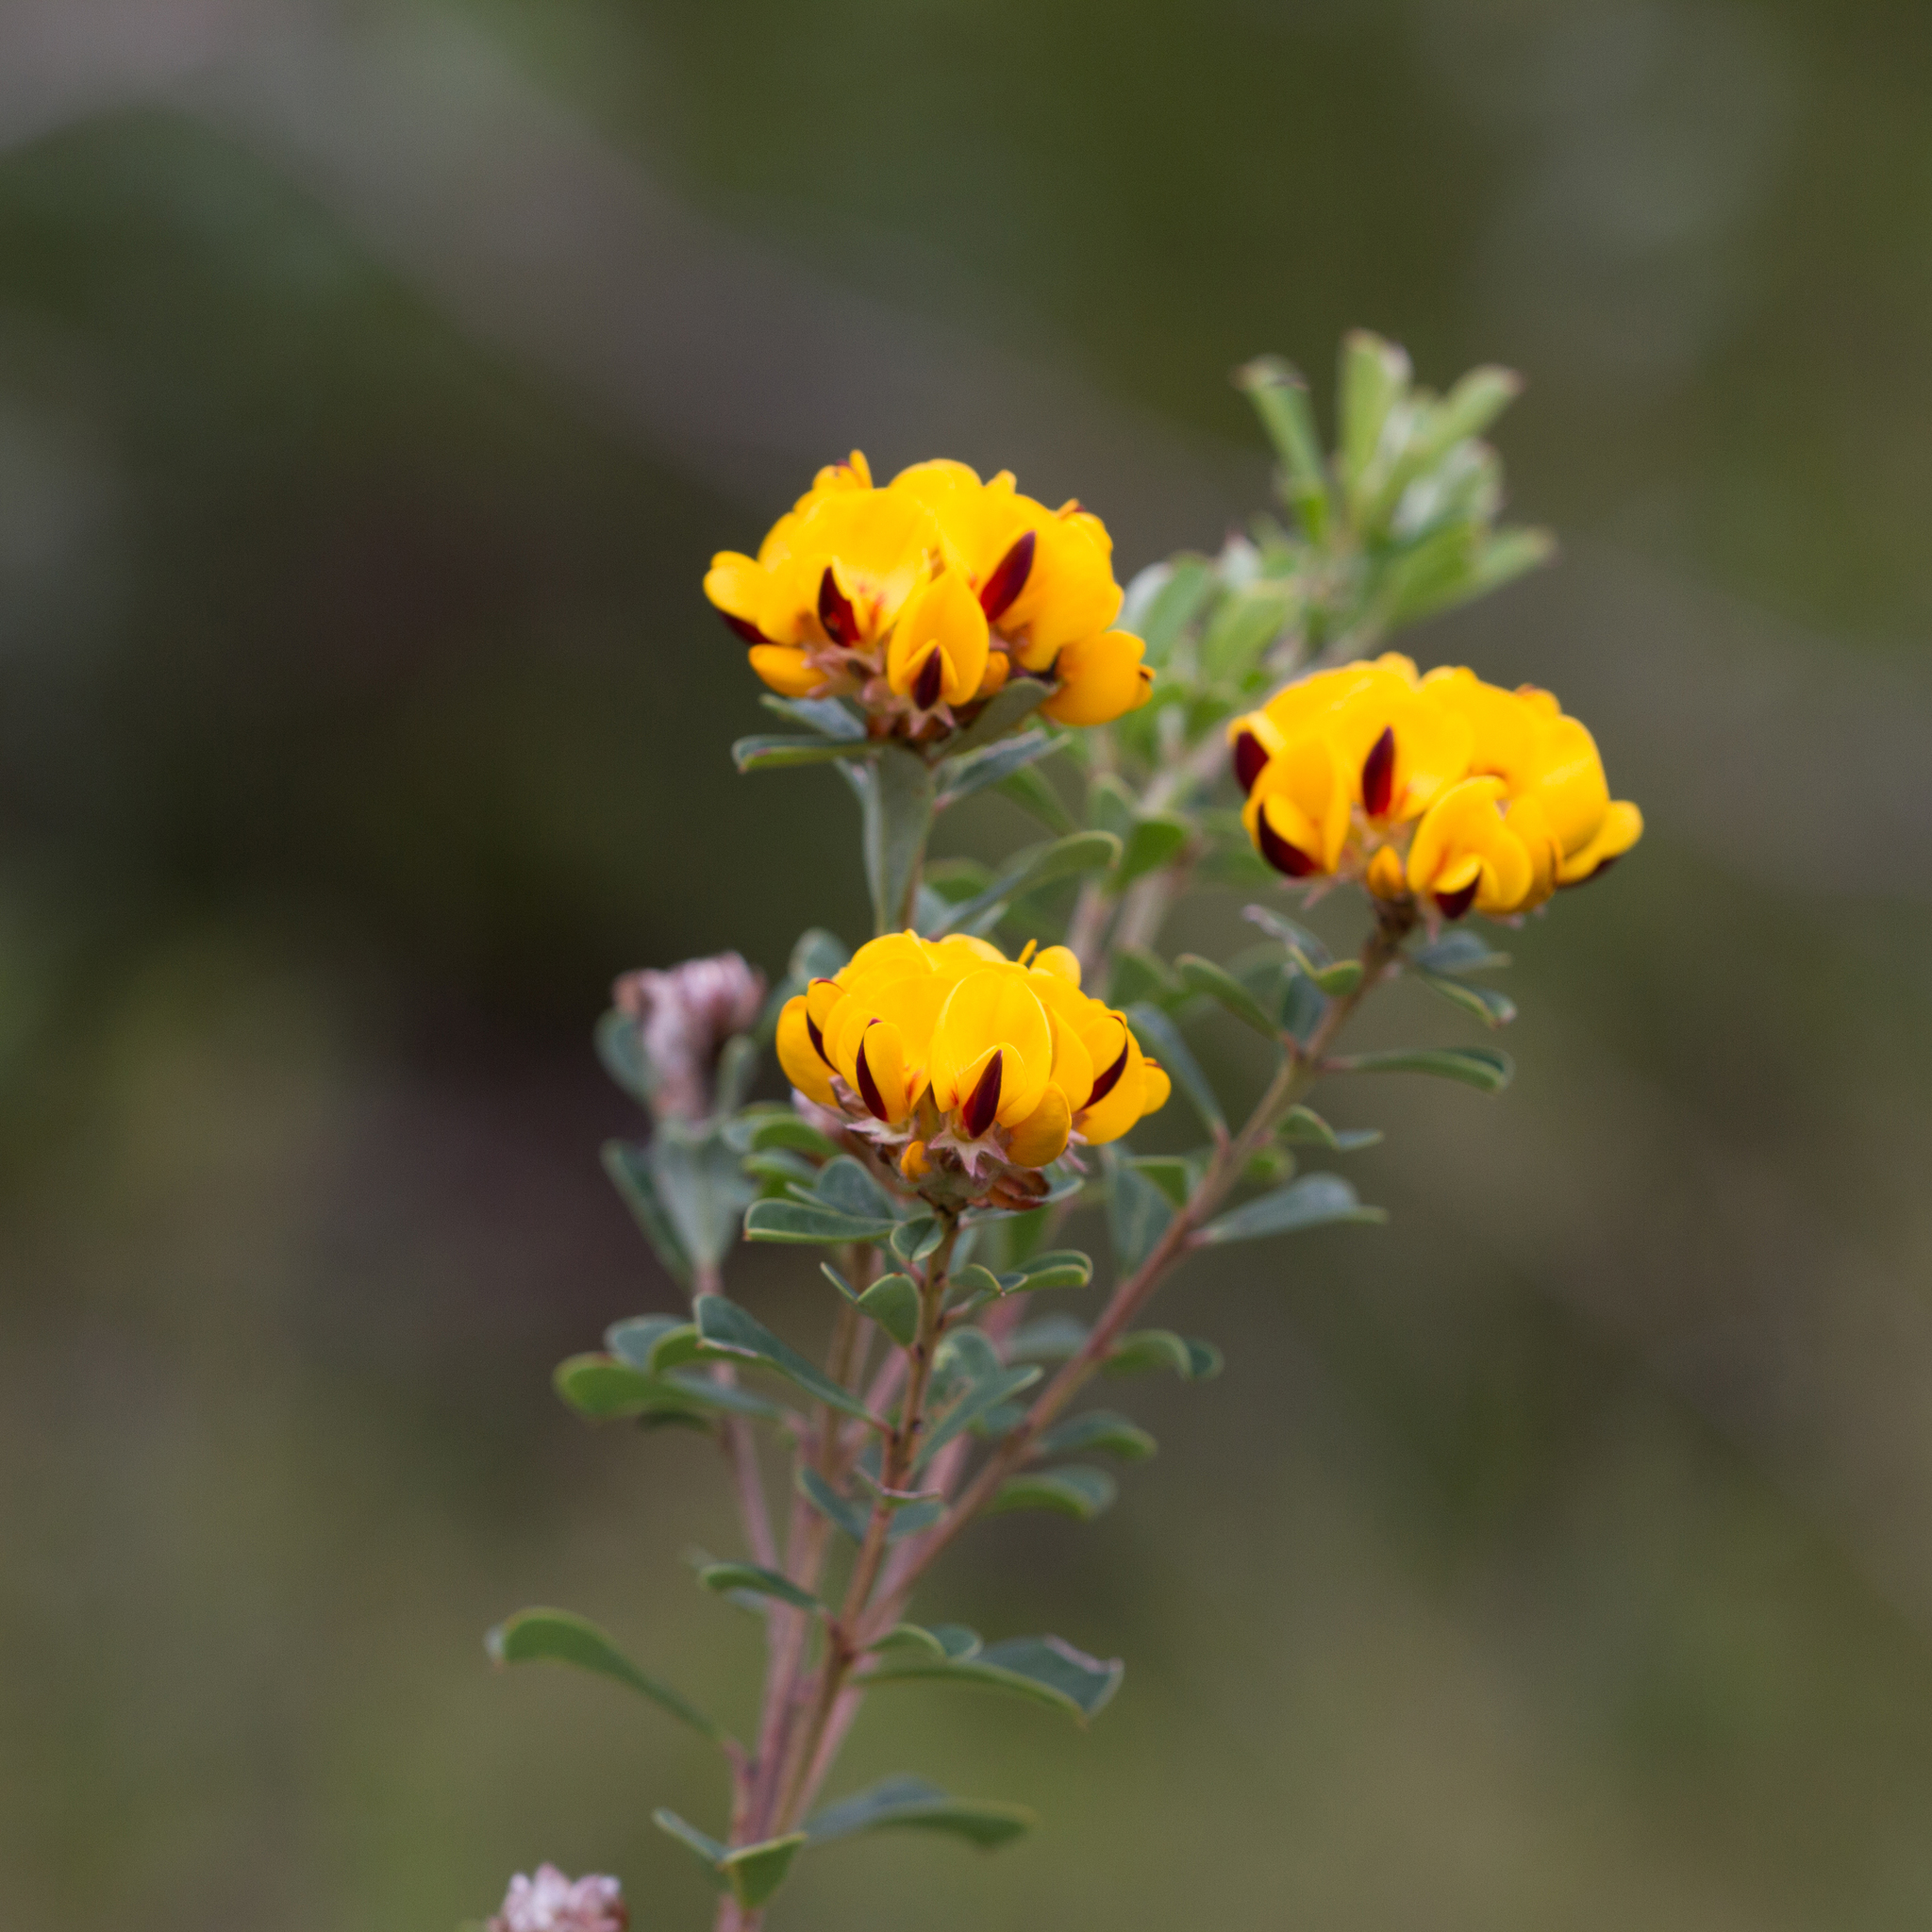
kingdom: Plantae
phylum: Tracheophyta
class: Magnoliopsida
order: Fabales
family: Fabaceae
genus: Pultenaea
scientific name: Pultenaea daphnoides
